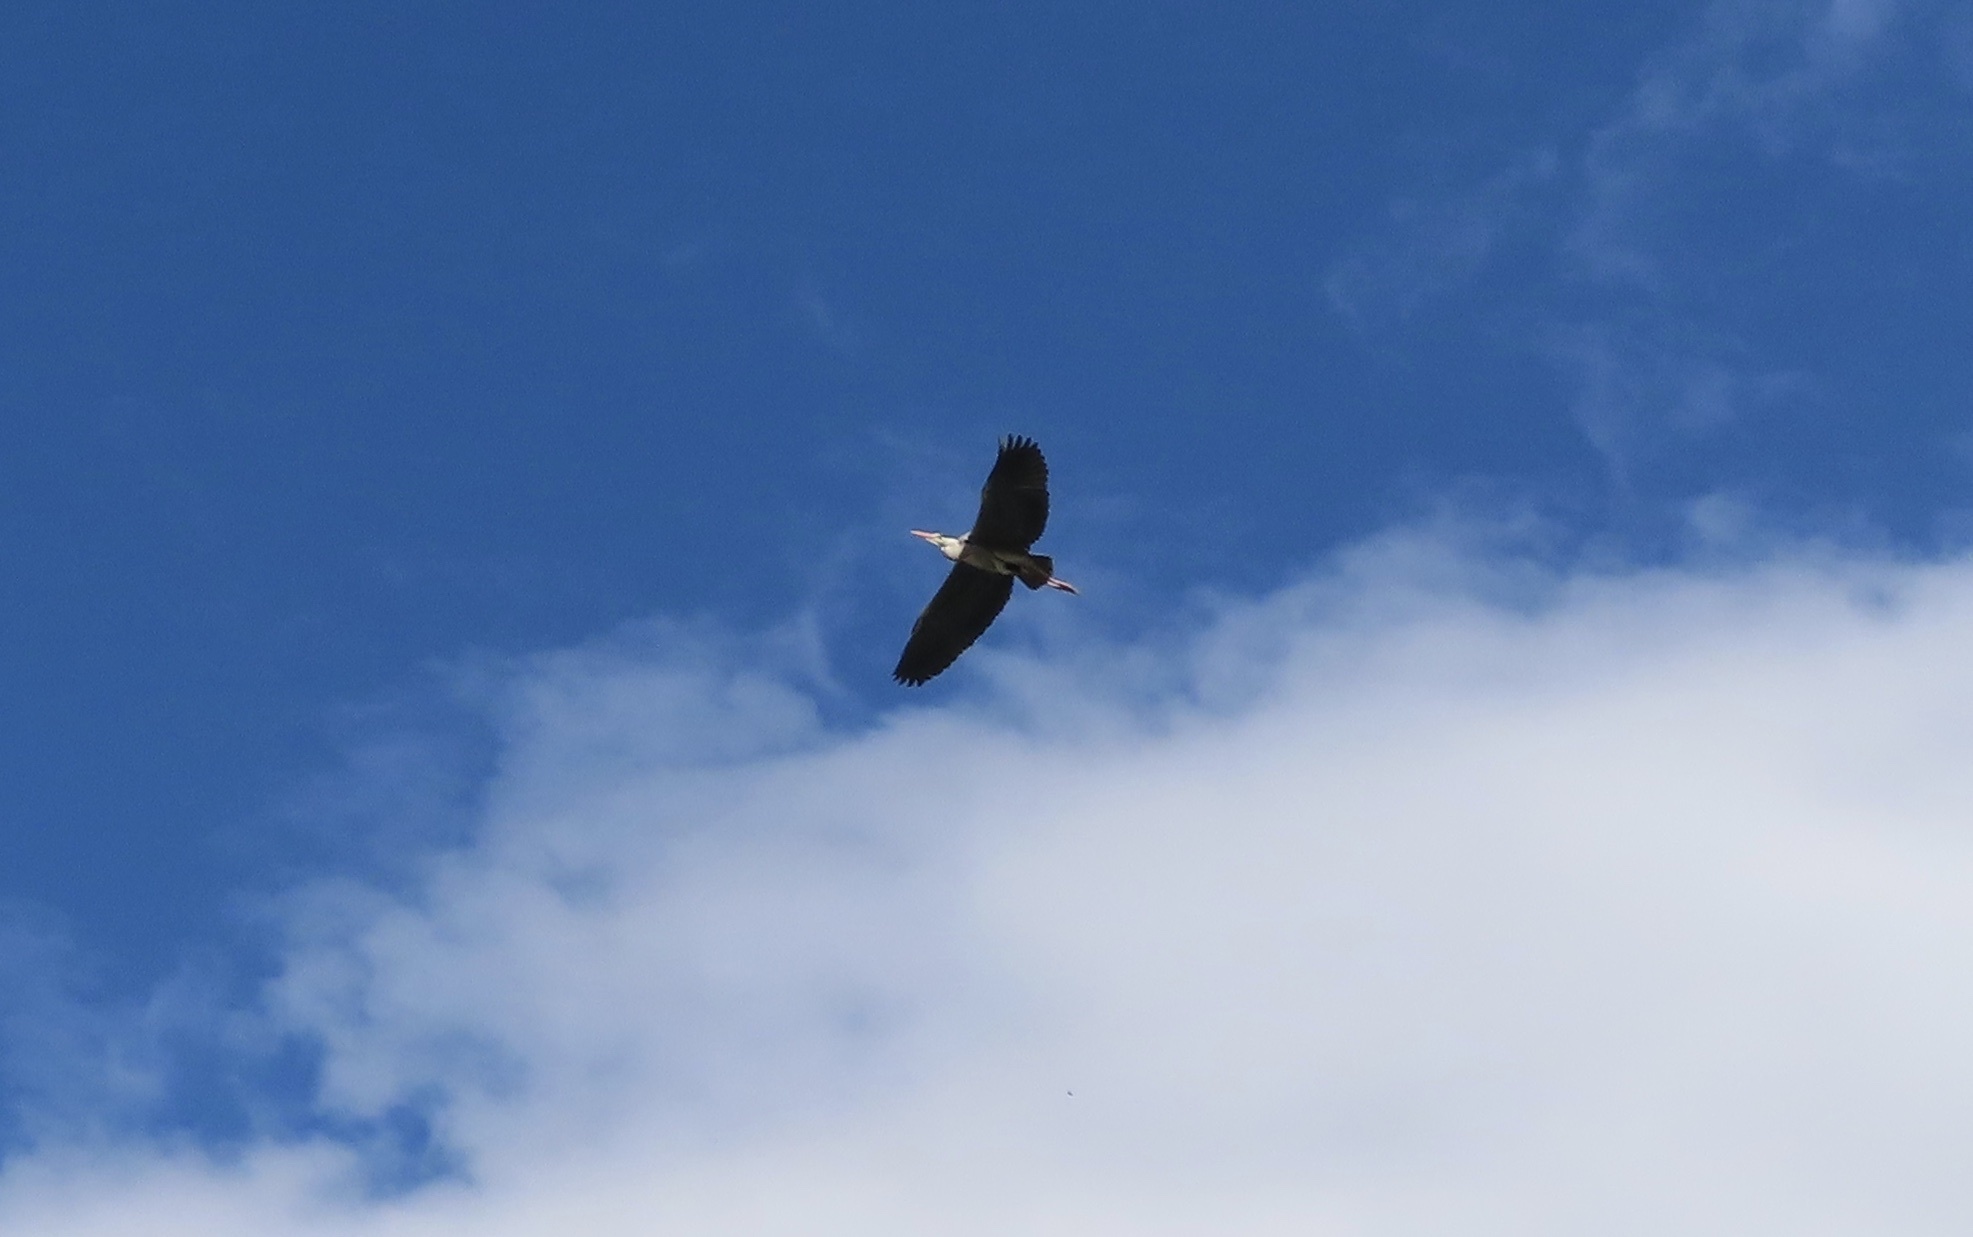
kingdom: Animalia
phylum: Chordata
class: Aves
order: Pelecaniformes
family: Ardeidae
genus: Ardea
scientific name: Ardea cinerea
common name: Grey heron
